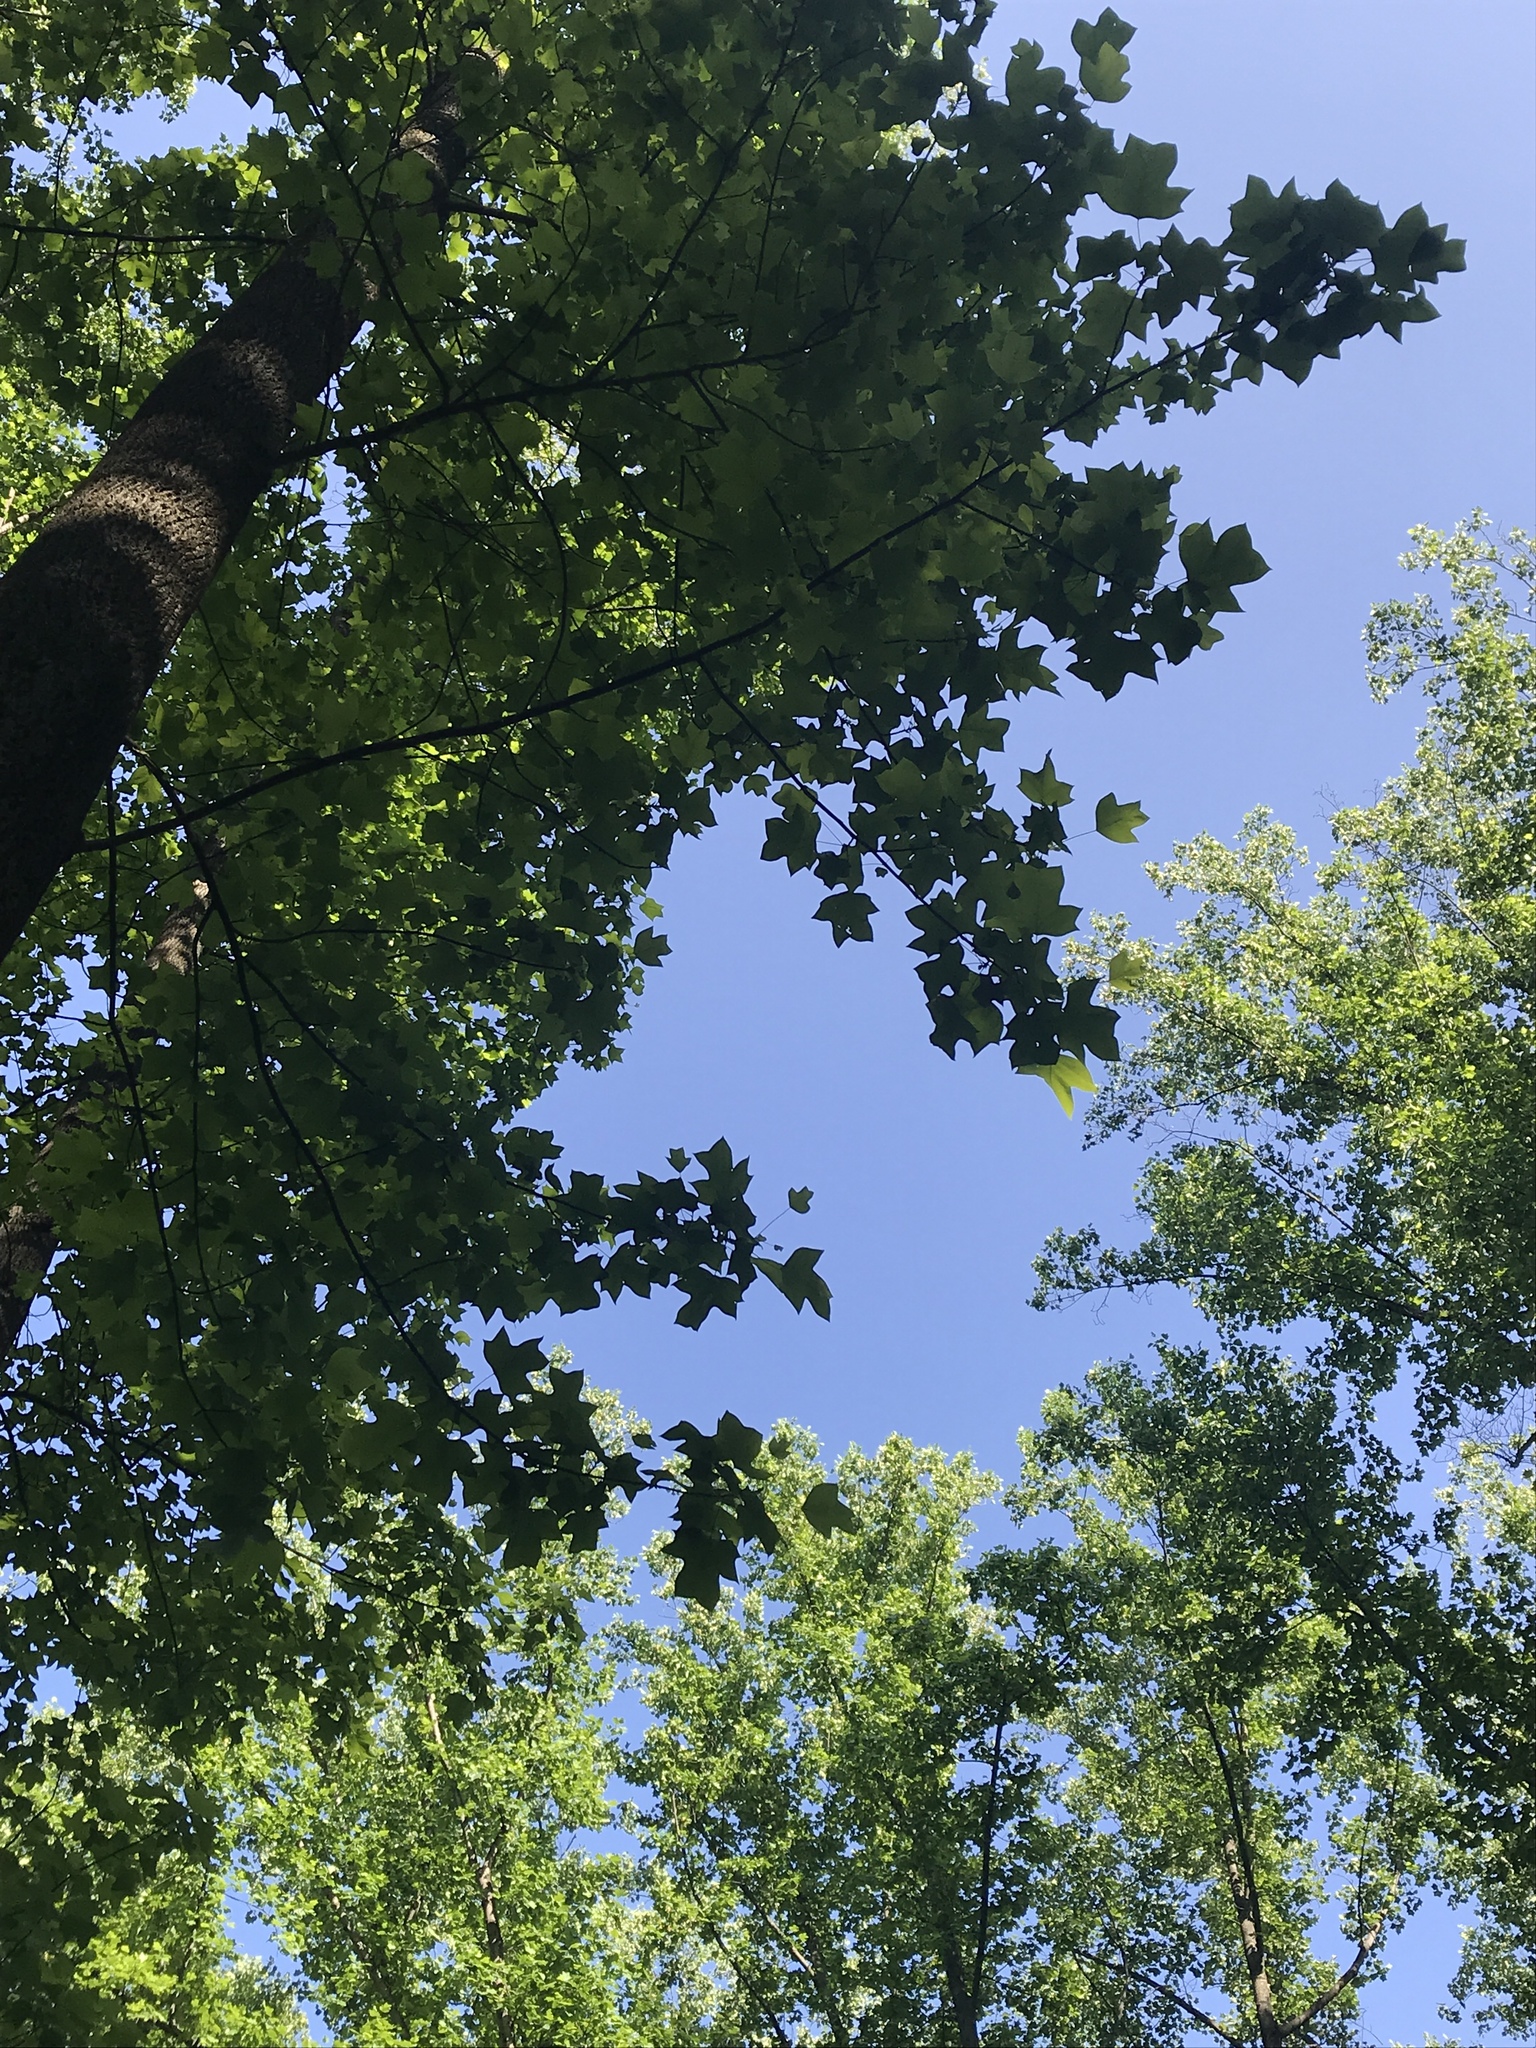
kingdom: Plantae
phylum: Tracheophyta
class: Magnoliopsida
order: Magnoliales
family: Magnoliaceae
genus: Liriodendron
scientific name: Liriodendron tulipifera
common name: Tulip tree
